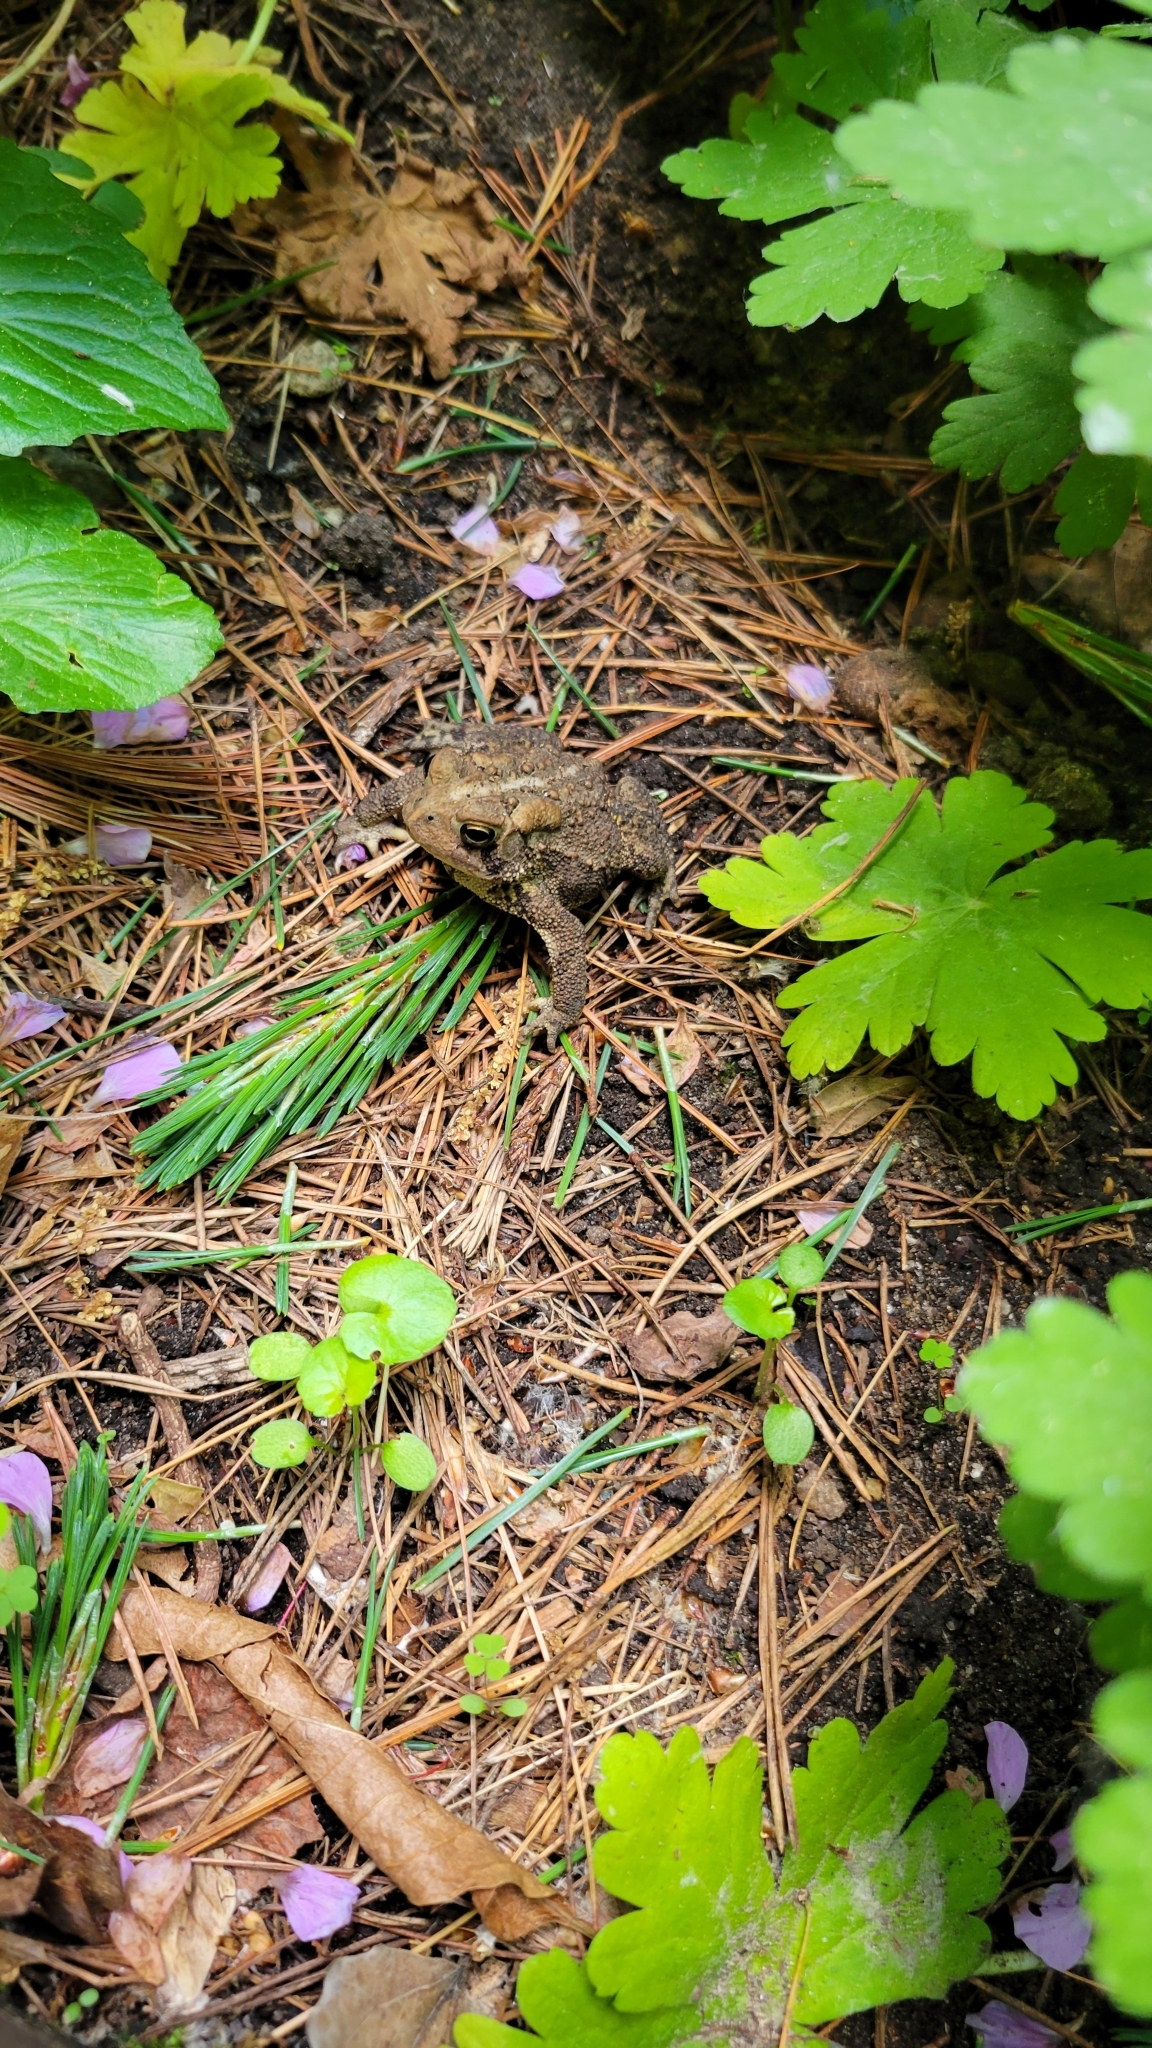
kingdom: Animalia
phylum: Chordata
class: Amphibia
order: Anura
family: Bufonidae
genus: Anaxyrus
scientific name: Anaxyrus americanus
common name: American toad
